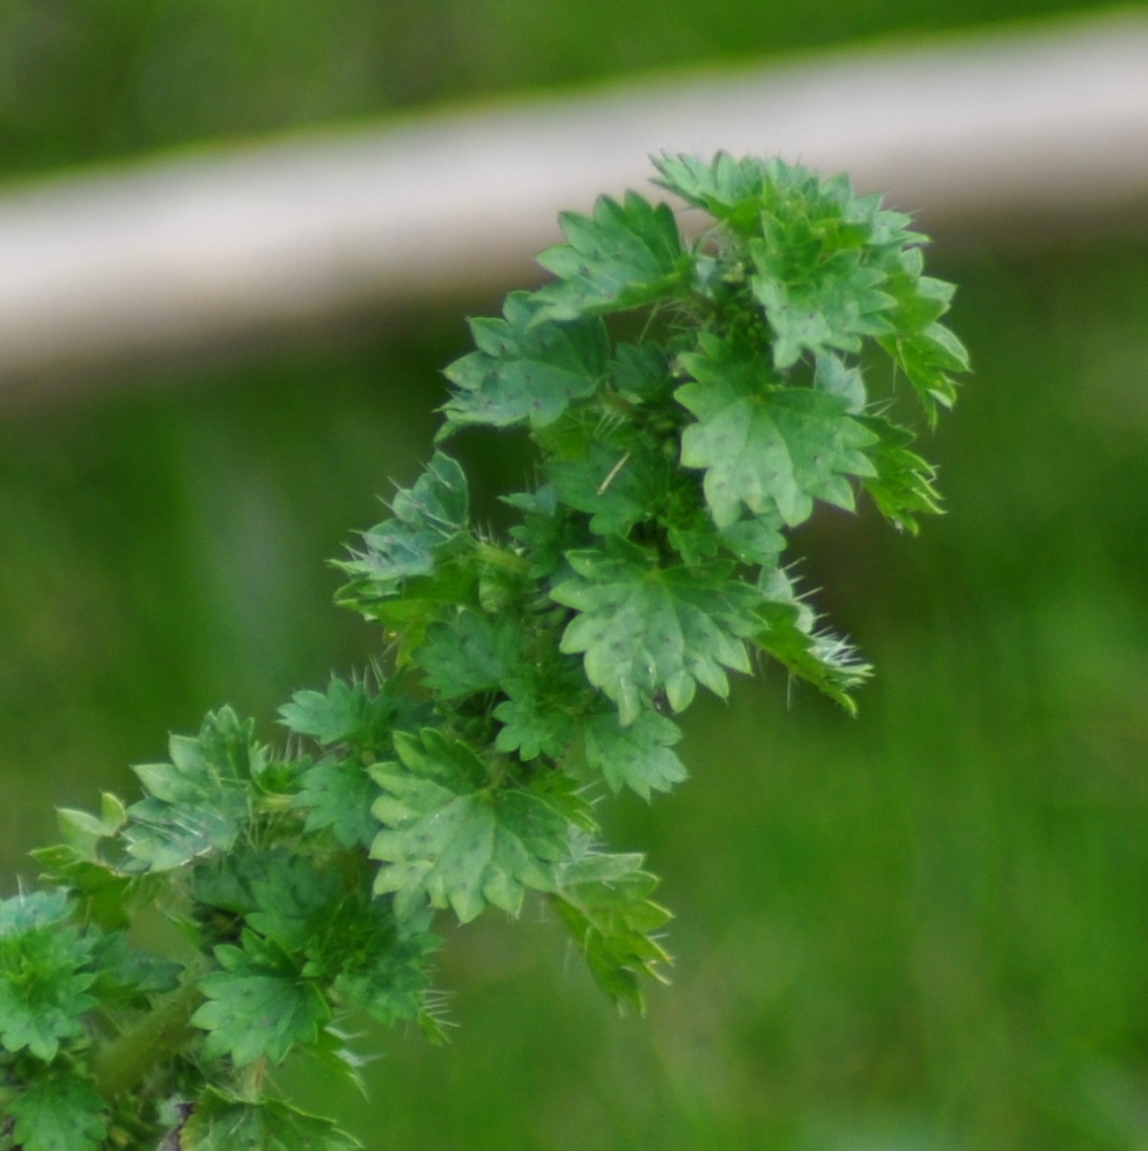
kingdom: Plantae
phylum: Tracheophyta
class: Magnoliopsida
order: Rosales
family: Urticaceae
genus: Urtica
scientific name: Urtica circularis
